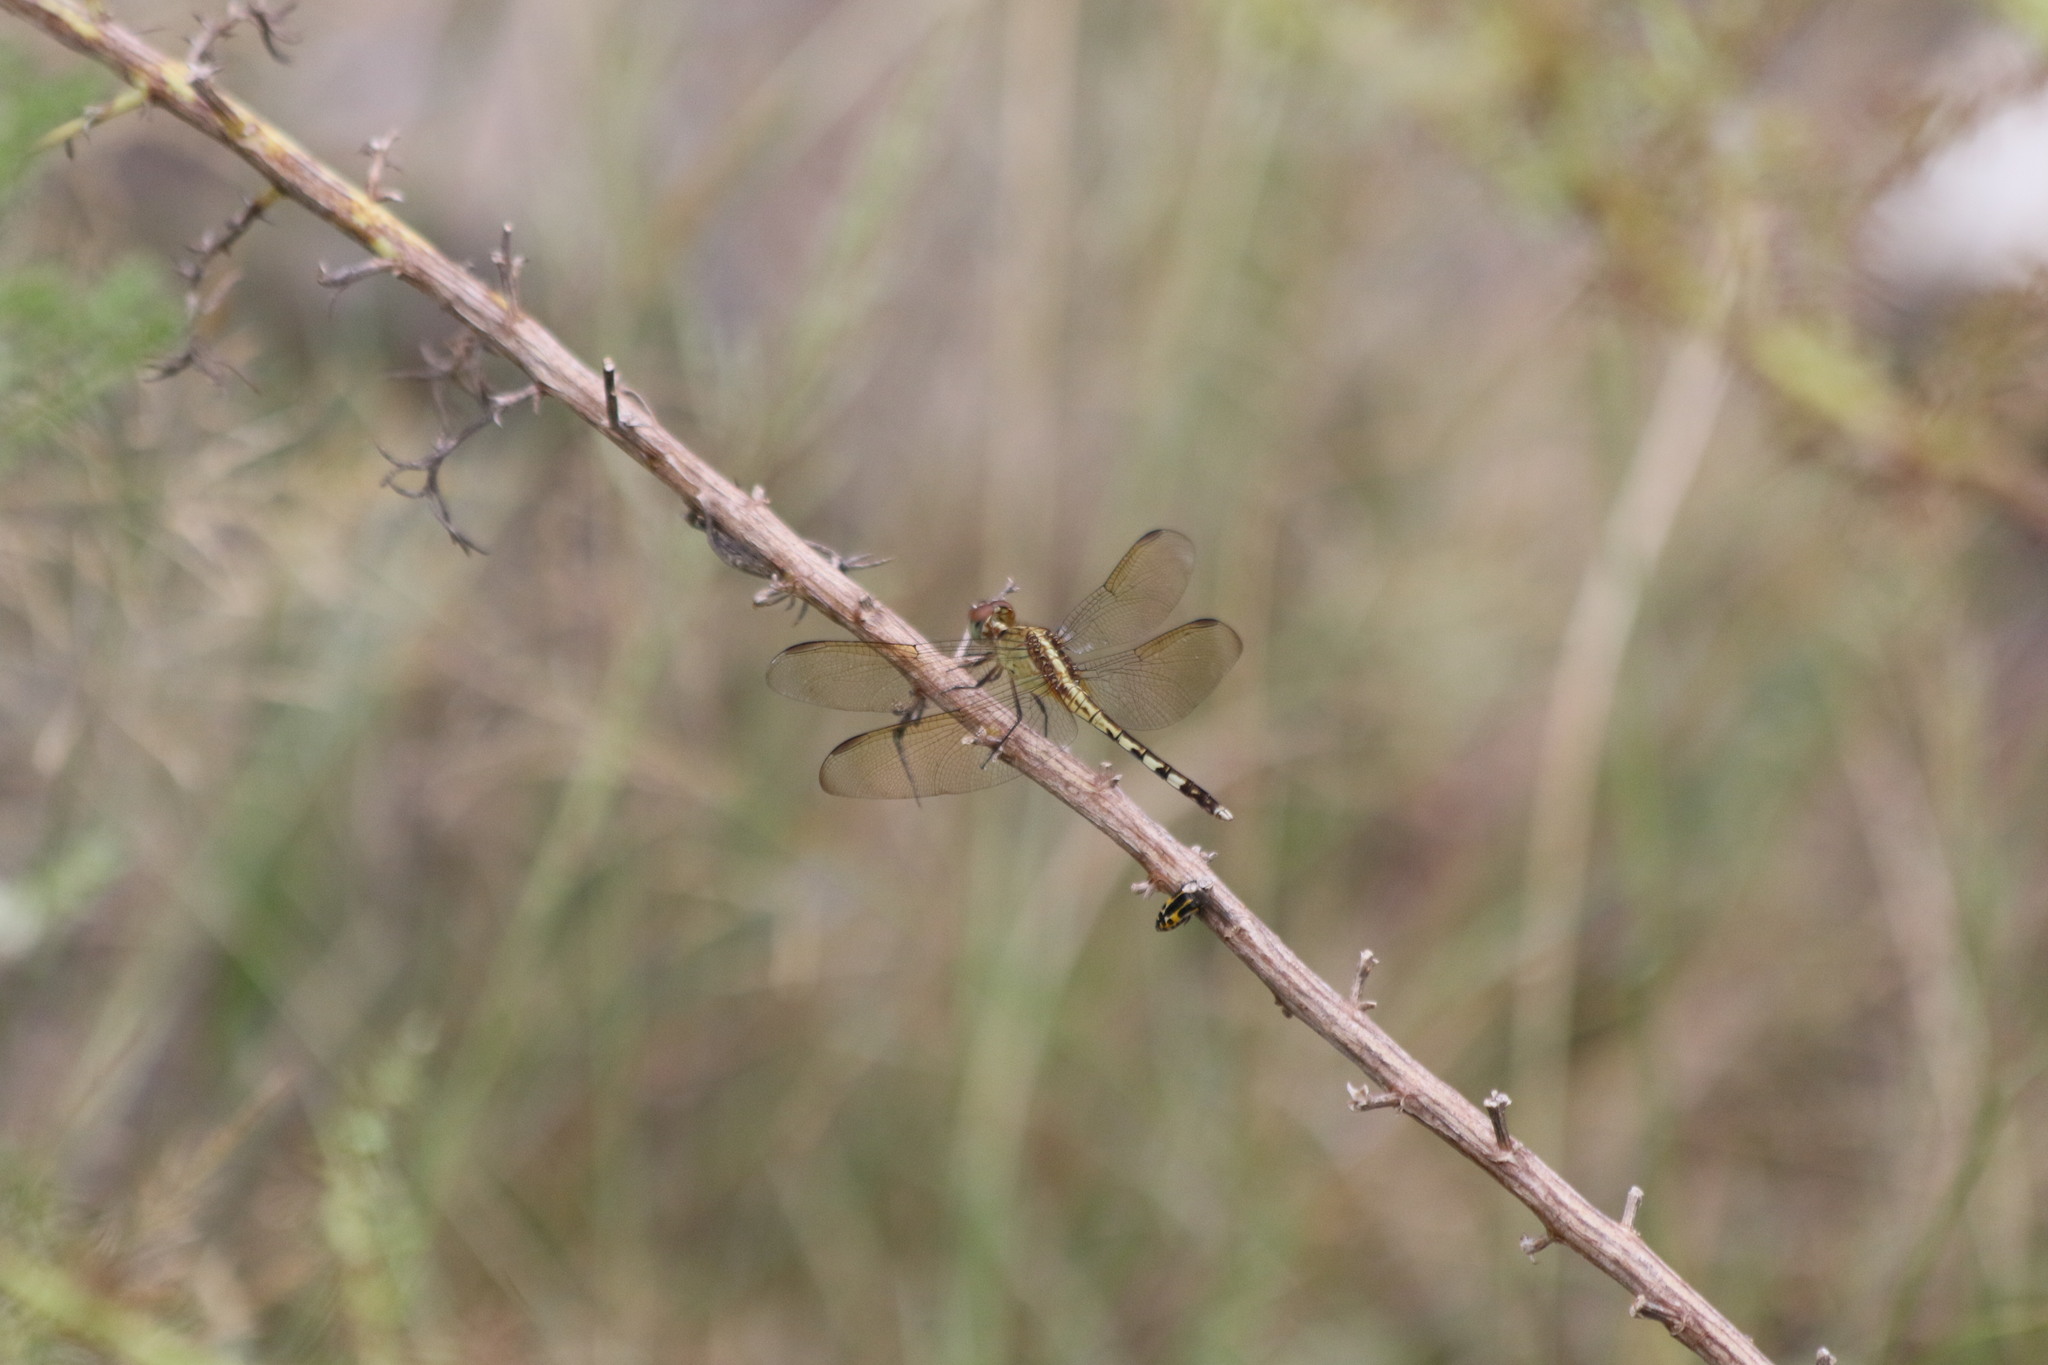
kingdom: Animalia
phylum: Arthropoda
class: Insecta
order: Odonata
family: Libellulidae
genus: Erythrodiplax
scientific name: Erythrodiplax umbrata
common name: Band-winged dragonlet
